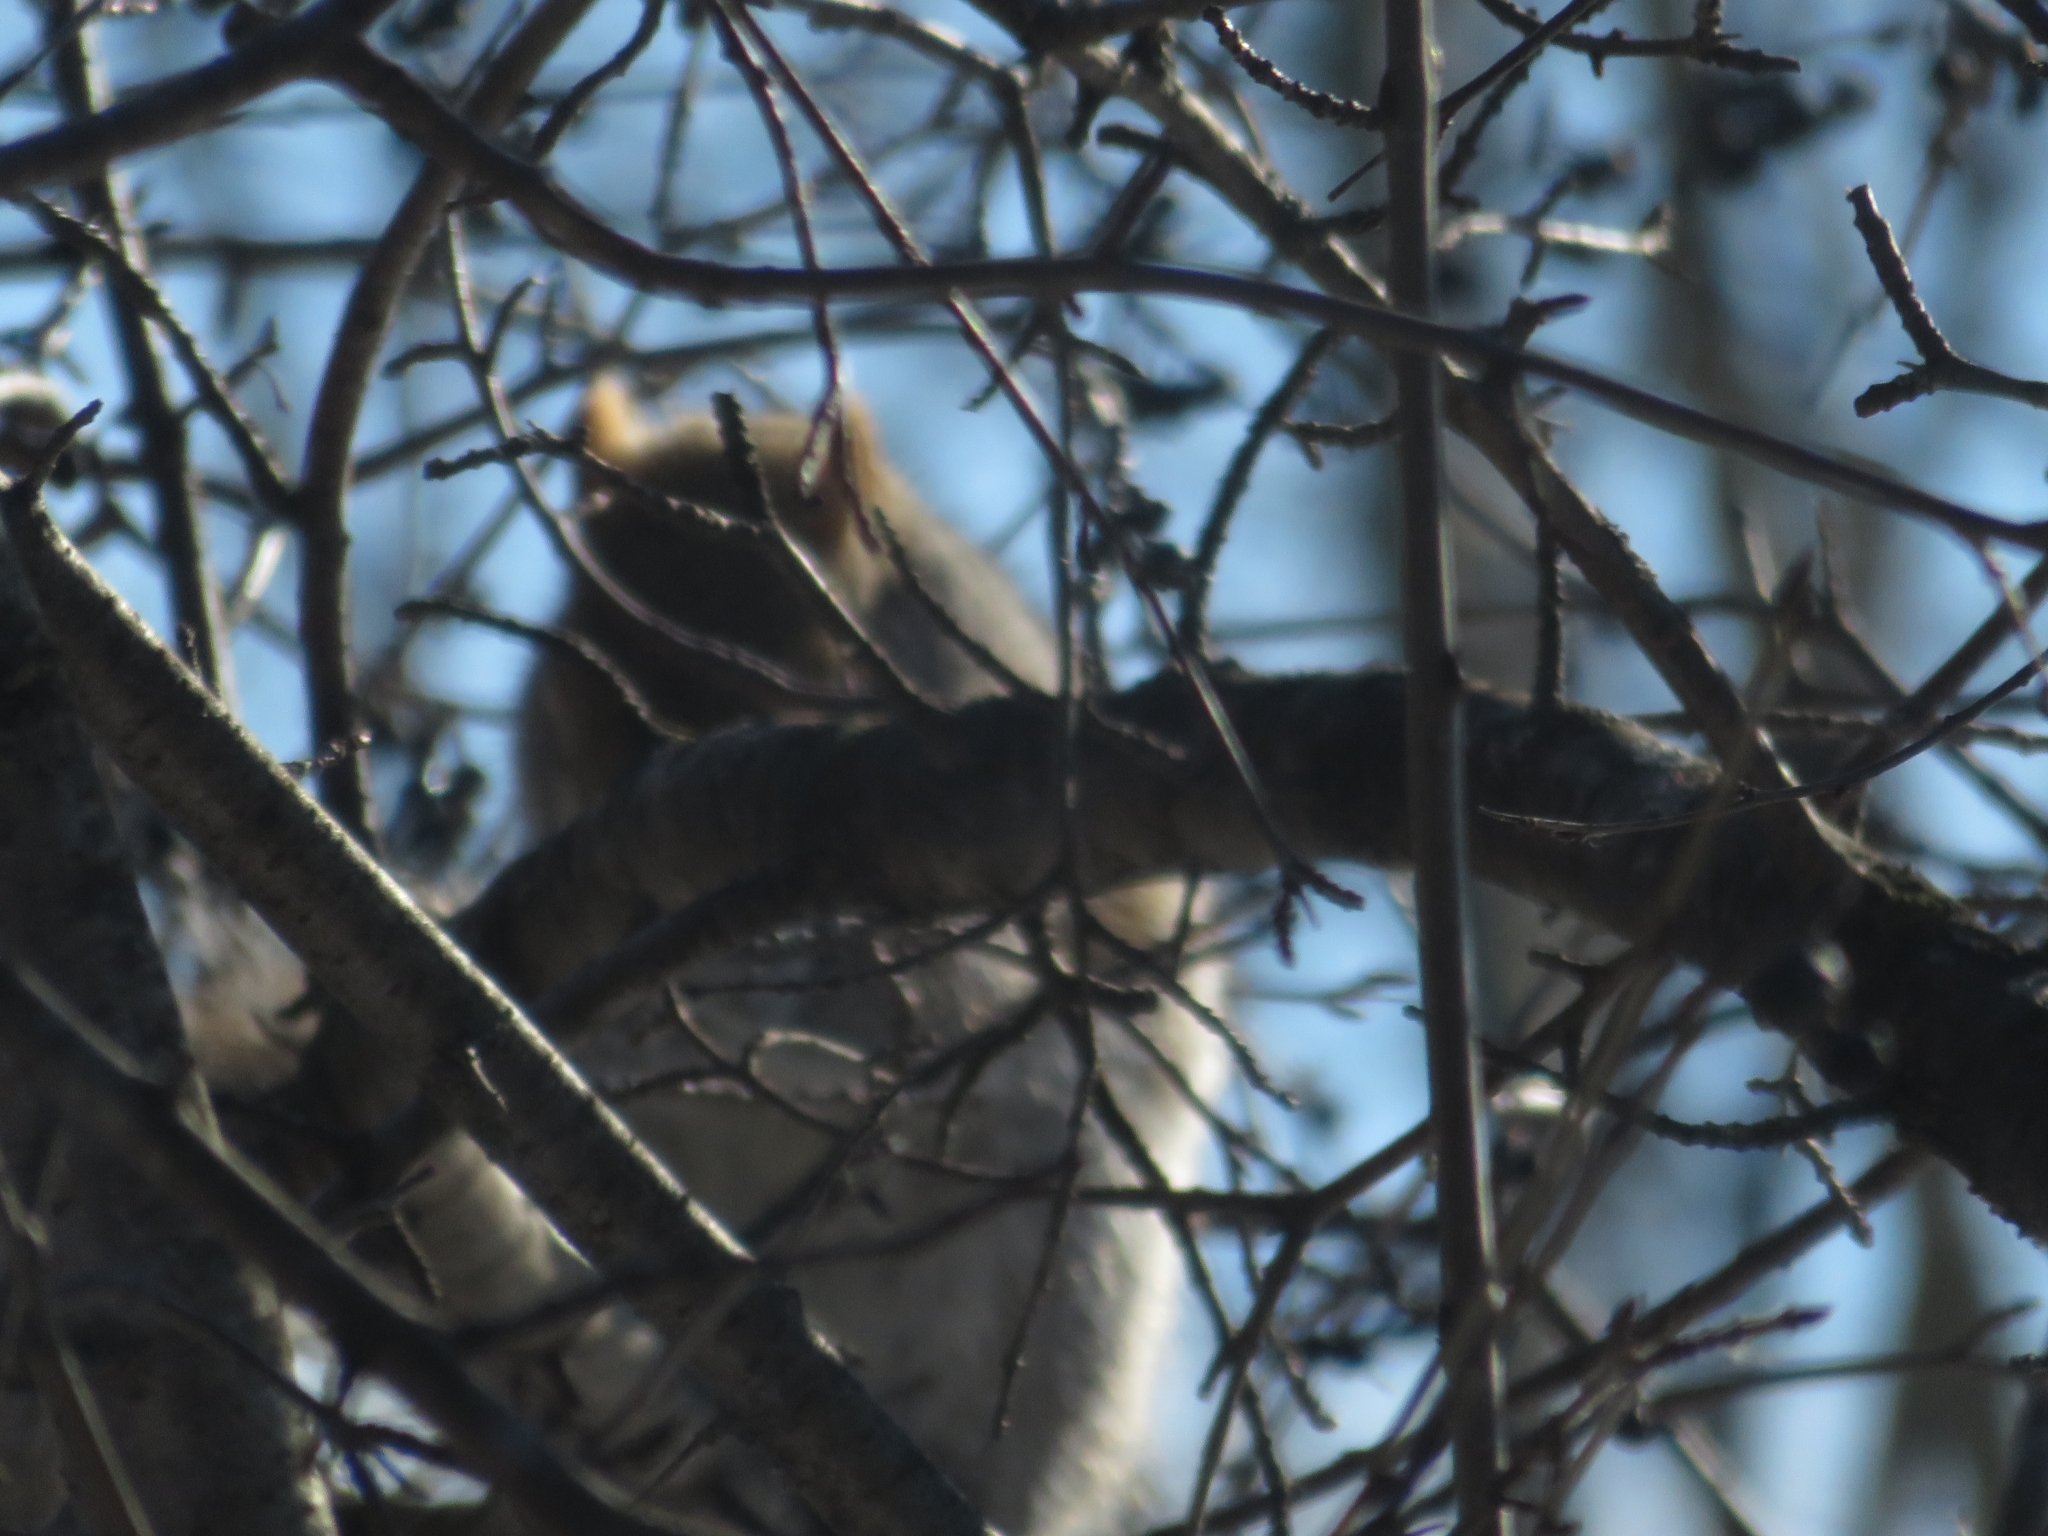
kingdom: Animalia
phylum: Chordata
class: Mammalia
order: Rodentia
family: Sciuridae
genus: Sciurus
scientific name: Sciurus carolinensis
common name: Eastern gray squirrel
